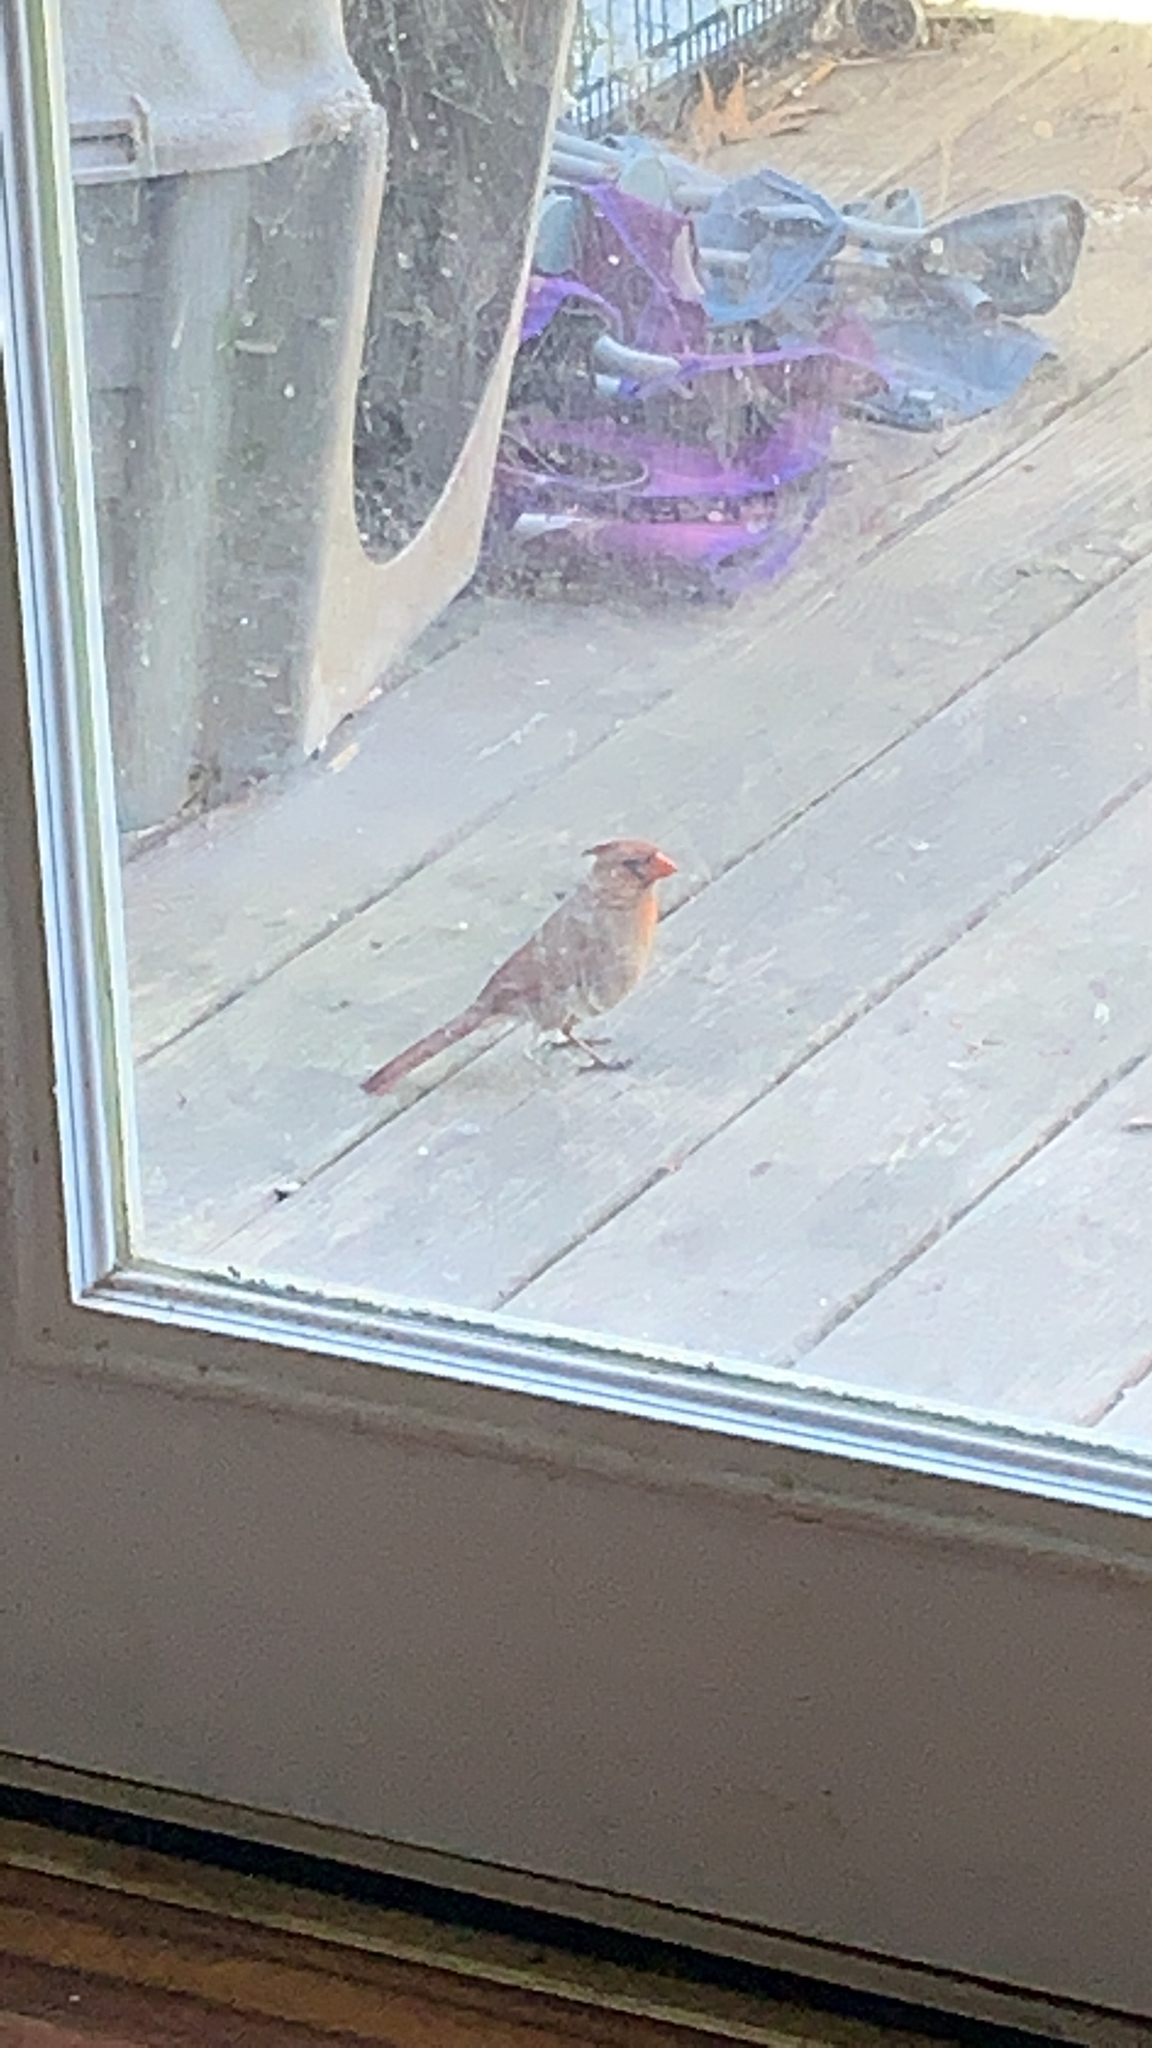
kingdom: Animalia
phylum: Chordata
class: Aves
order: Passeriformes
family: Cardinalidae
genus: Cardinalis
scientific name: Cardinalis cardinalis
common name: Northern cardinal
